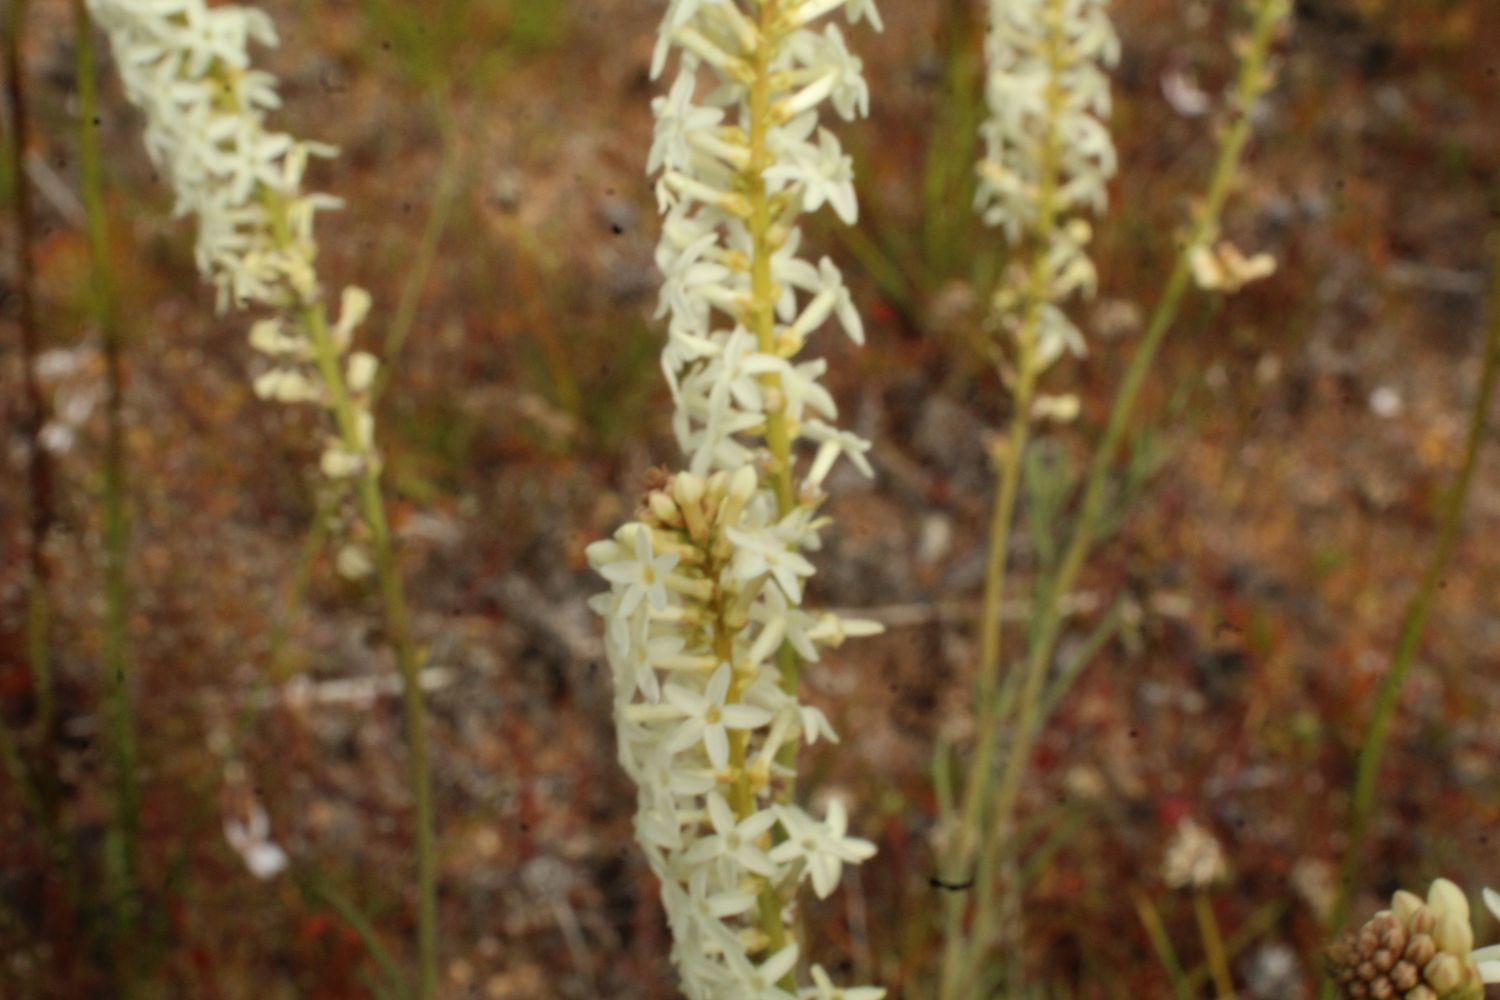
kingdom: Plantae
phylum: Tracheophyta
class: Magnoliopsida
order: Celastrales
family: Celastraceae
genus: Stackhousia
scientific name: Stackhousia monogyna
